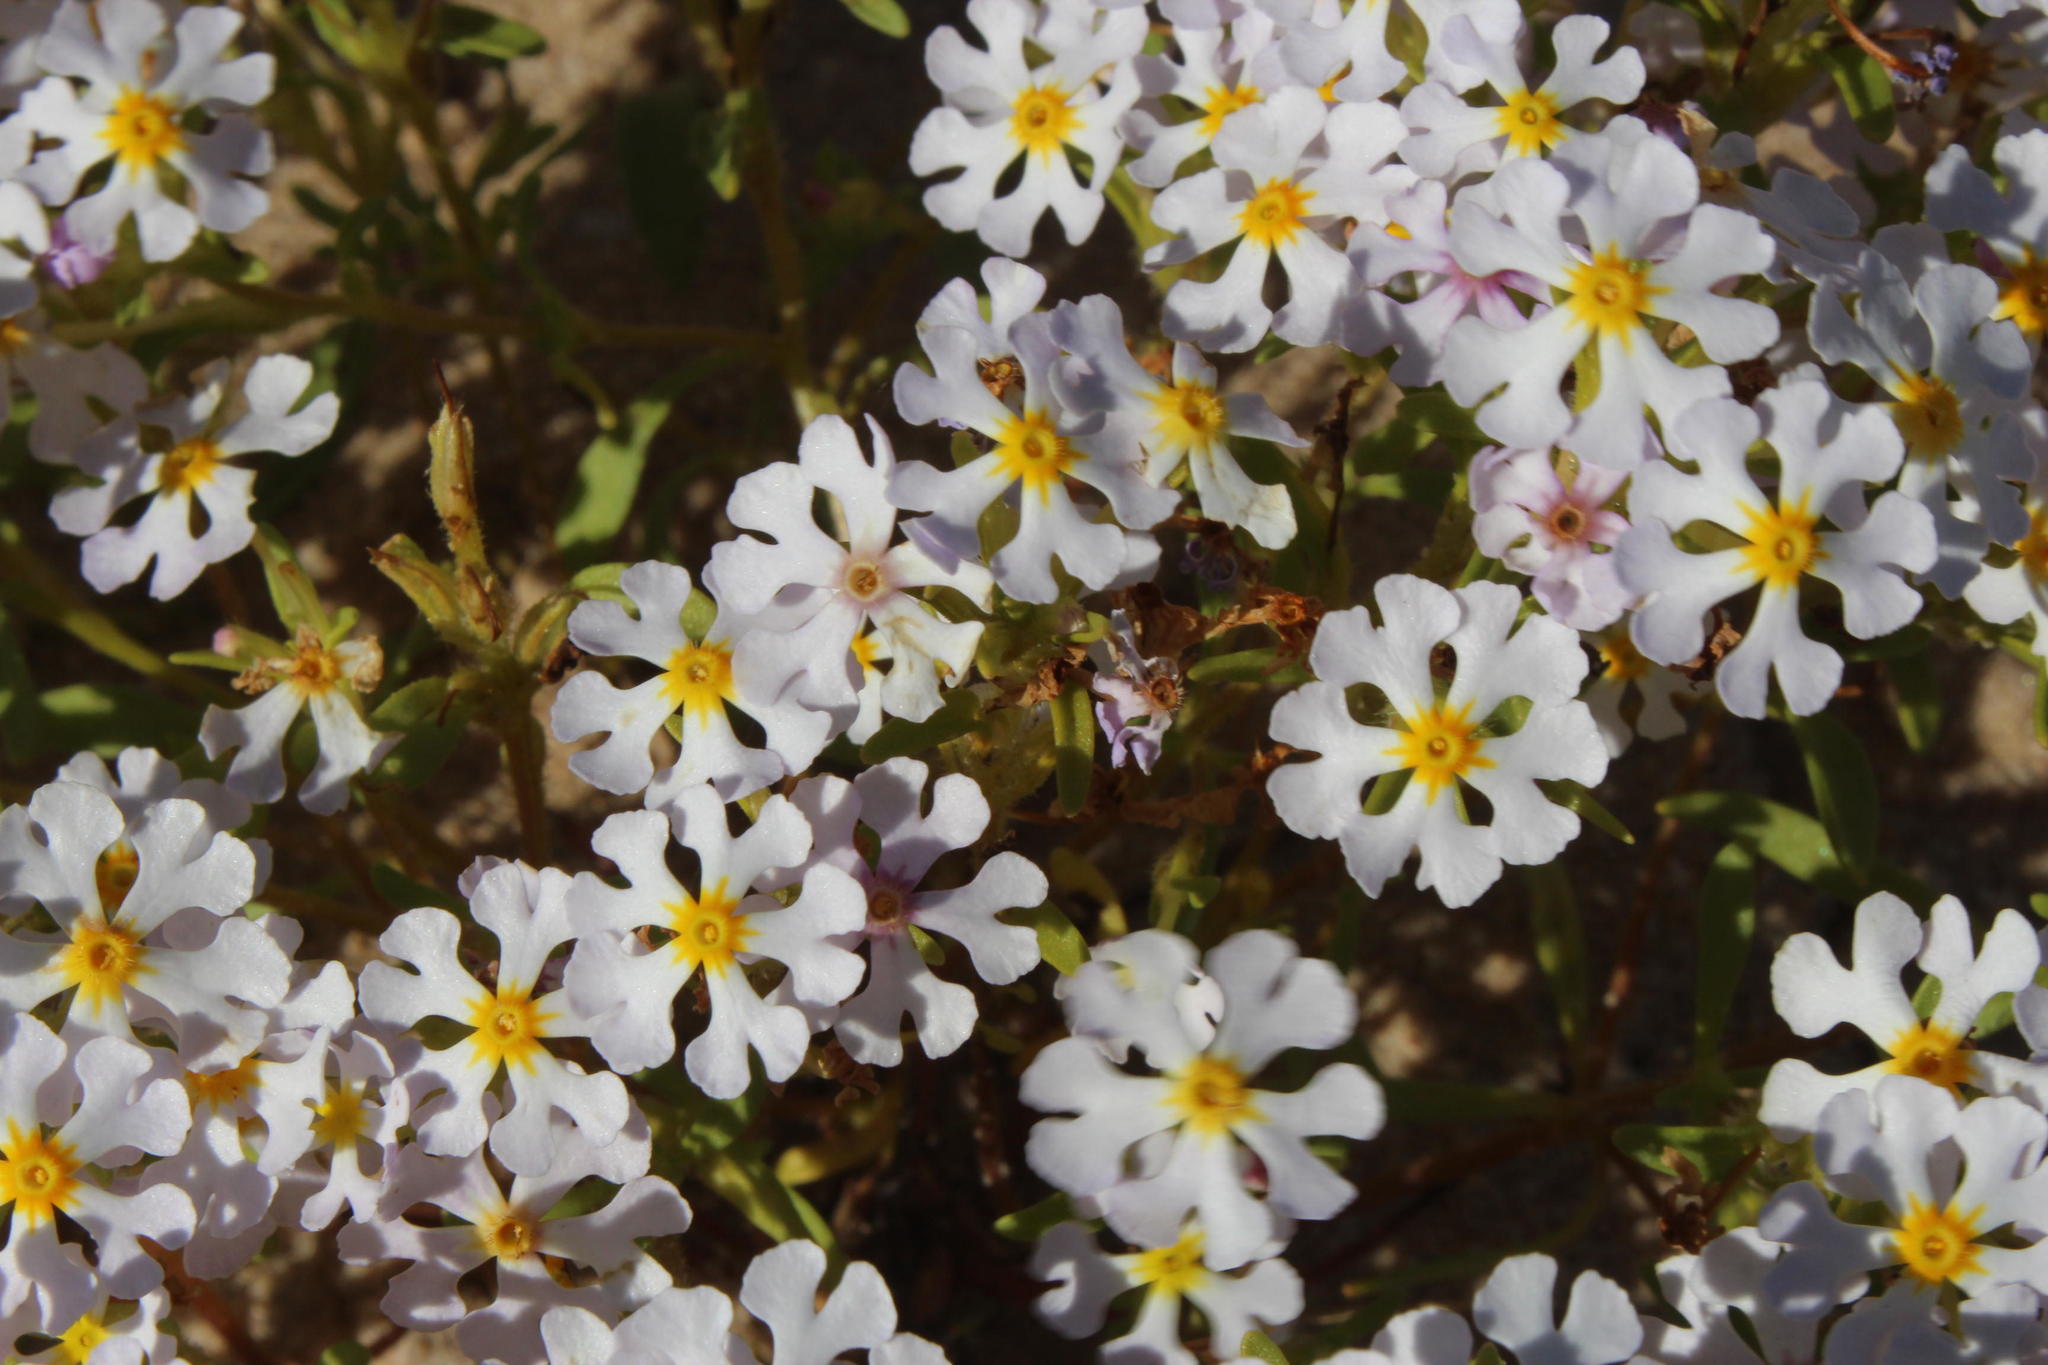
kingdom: Plantae
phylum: Tracheophyta
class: Magnoliopsida
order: Lamiales
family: Scrophulariaceae
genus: Zaluzianskya
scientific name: Zaluzianskya affinis
